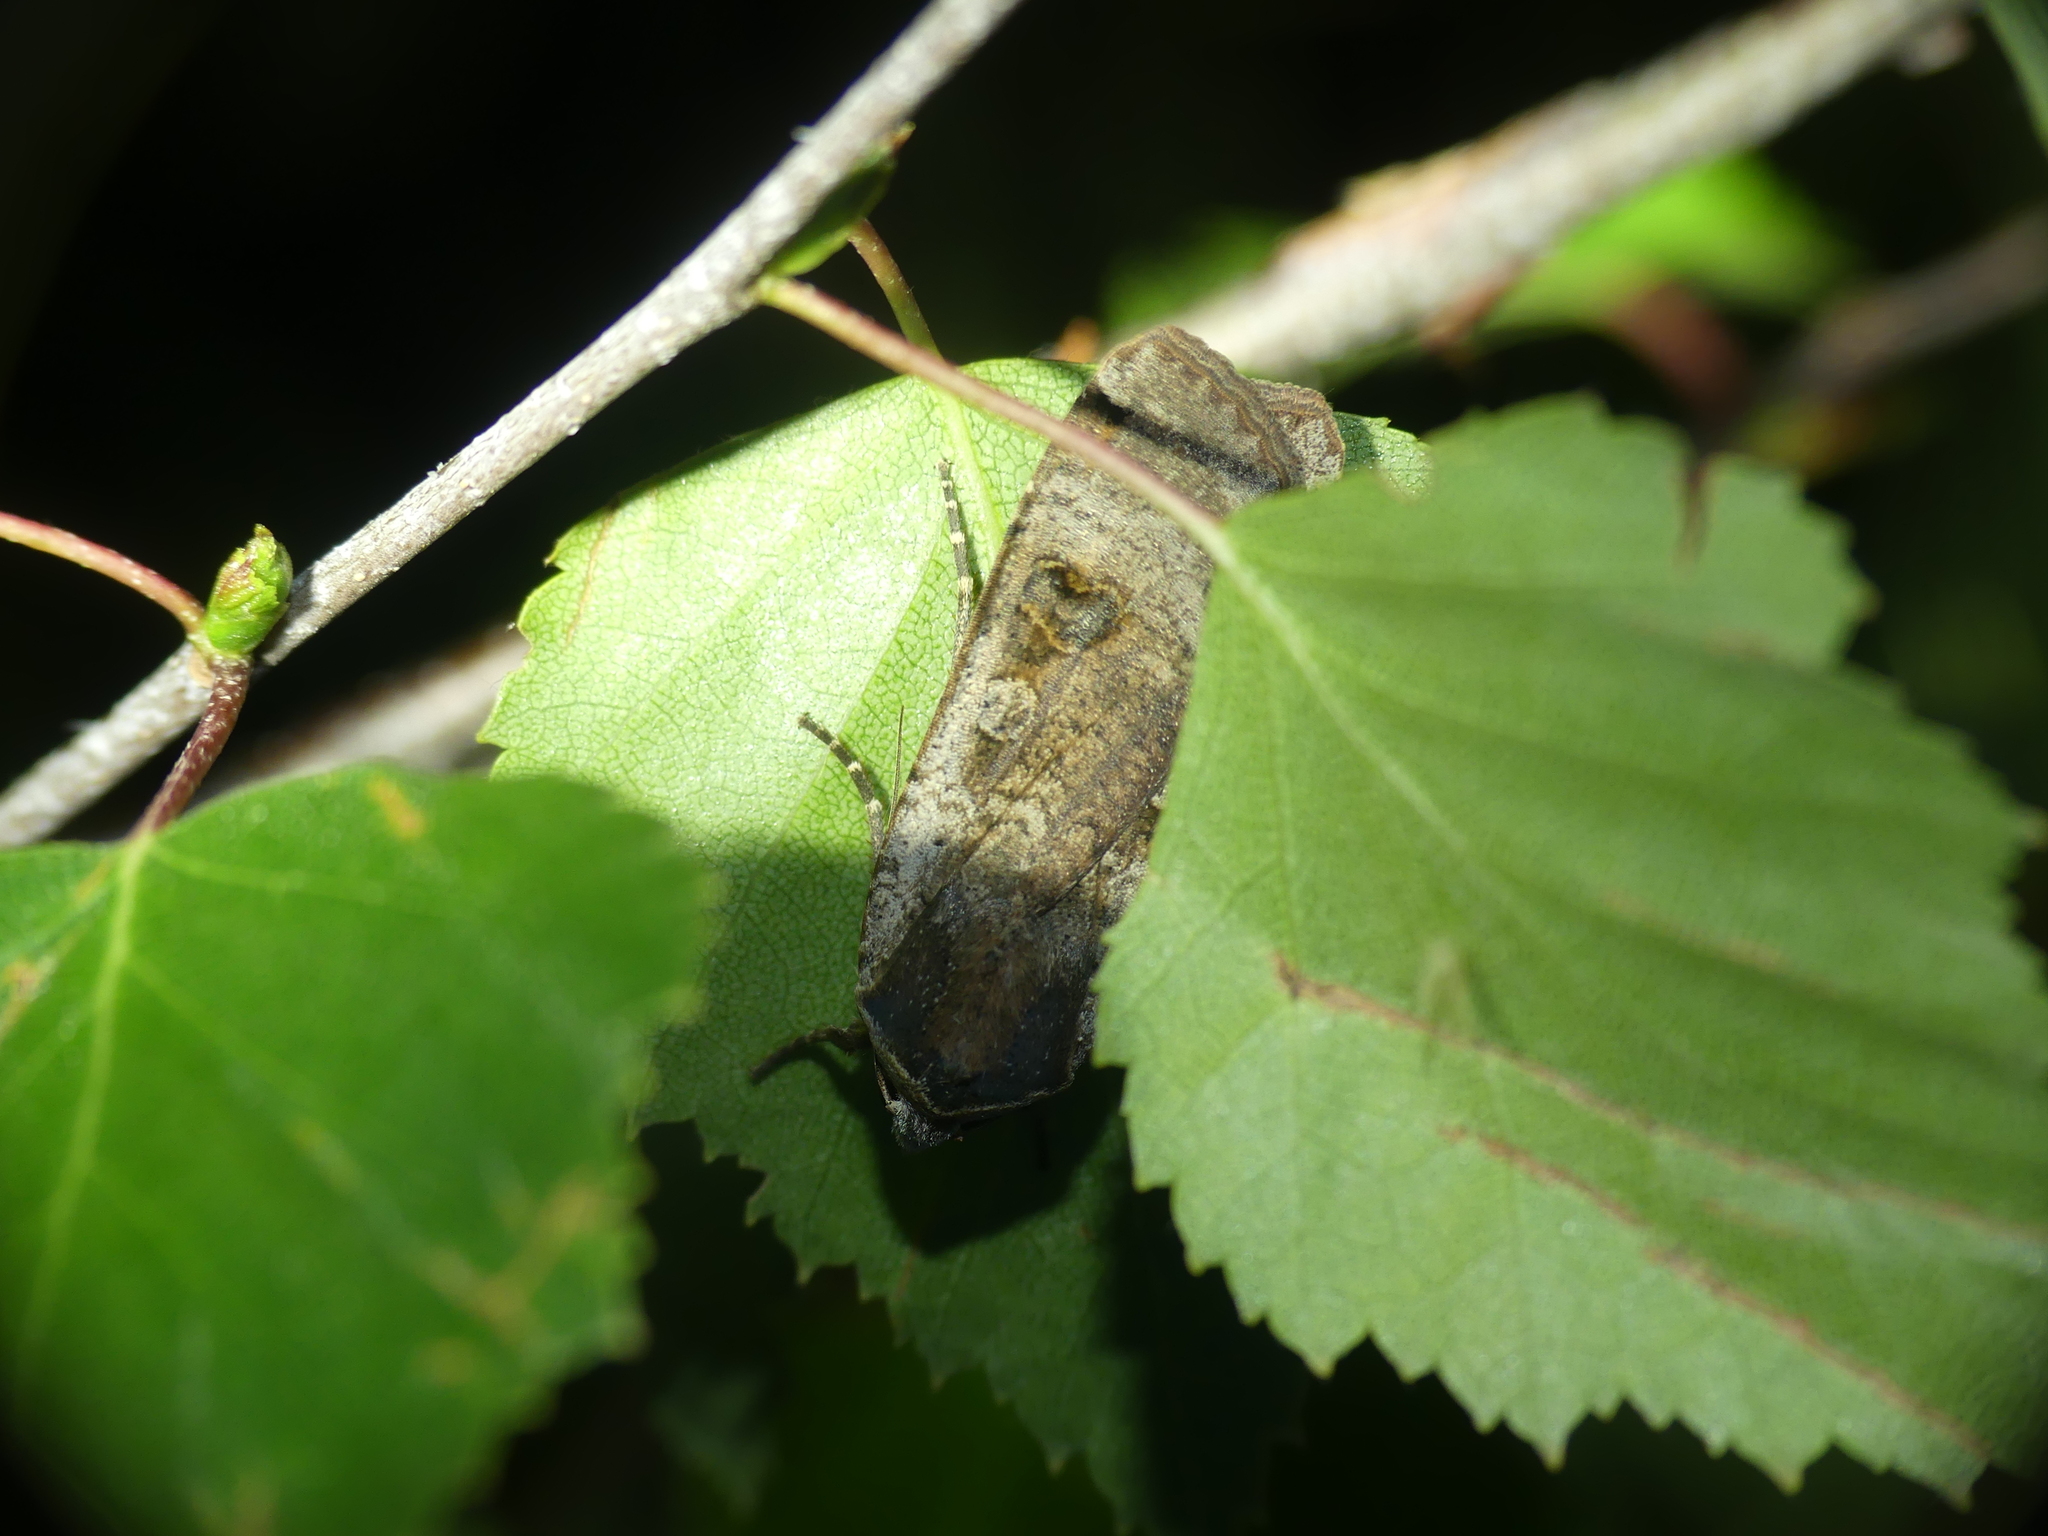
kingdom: Animalia
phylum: Arthropoda
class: Insecta
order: Lepidoptera
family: Noctuidae
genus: Noctua
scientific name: Noctua pronuba
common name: Large yellow underwing
